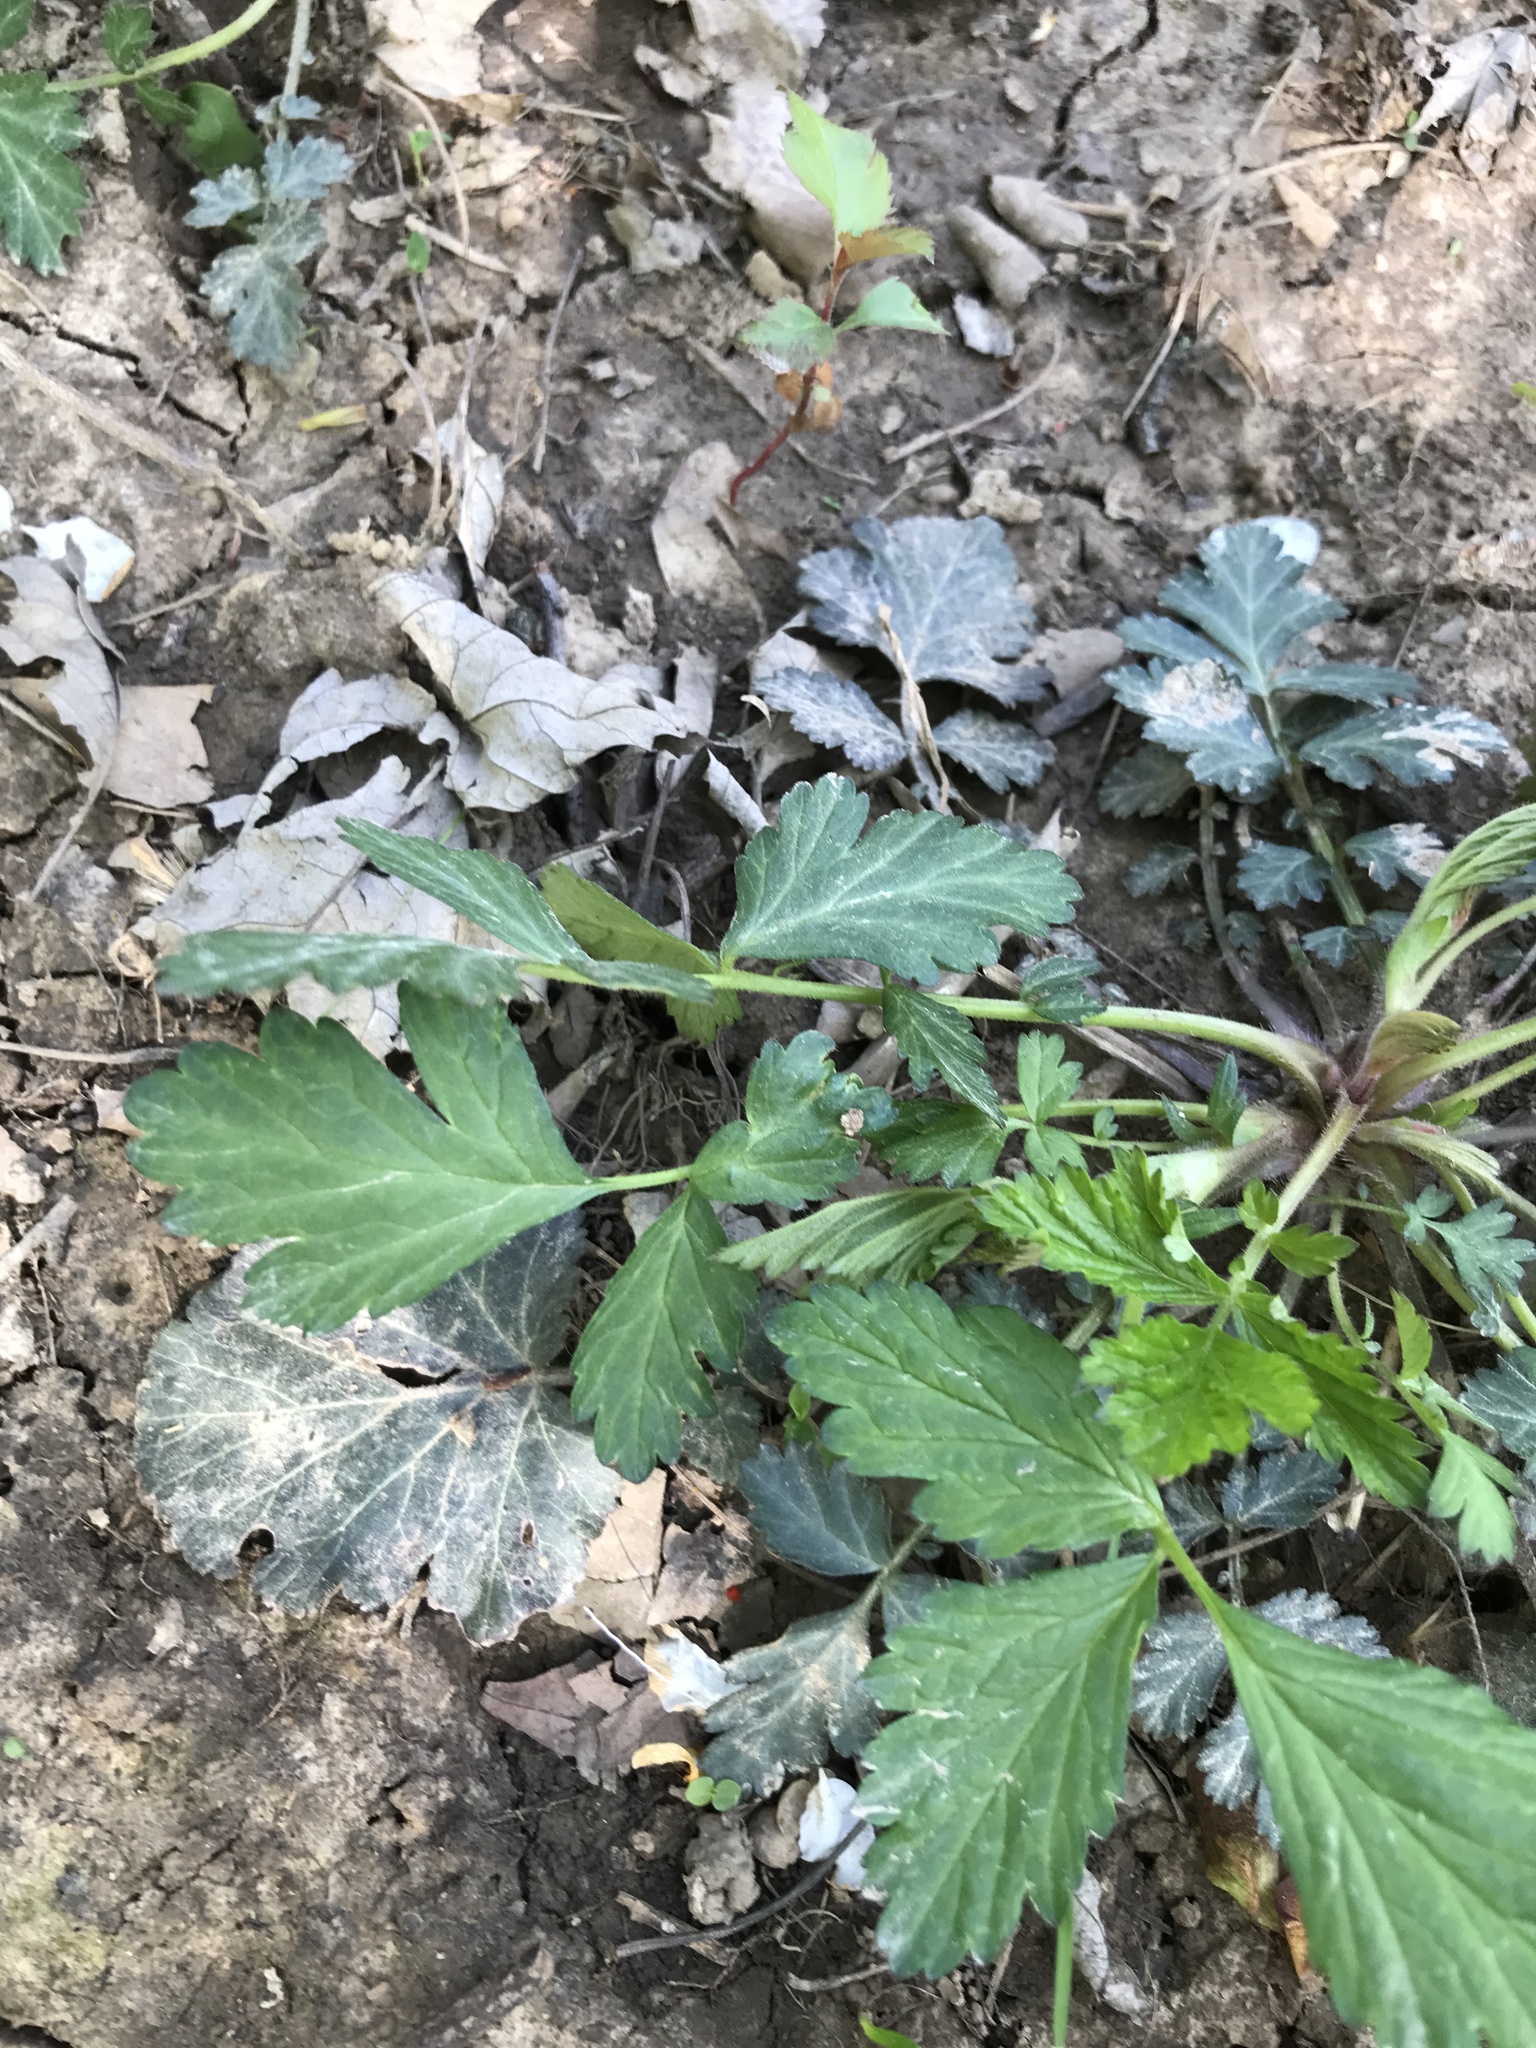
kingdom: Plantae
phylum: Tracheophyta
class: Magnoliopsida
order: Rosales
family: Rosaceae
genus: Geum
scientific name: Geum canadense
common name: White avens
